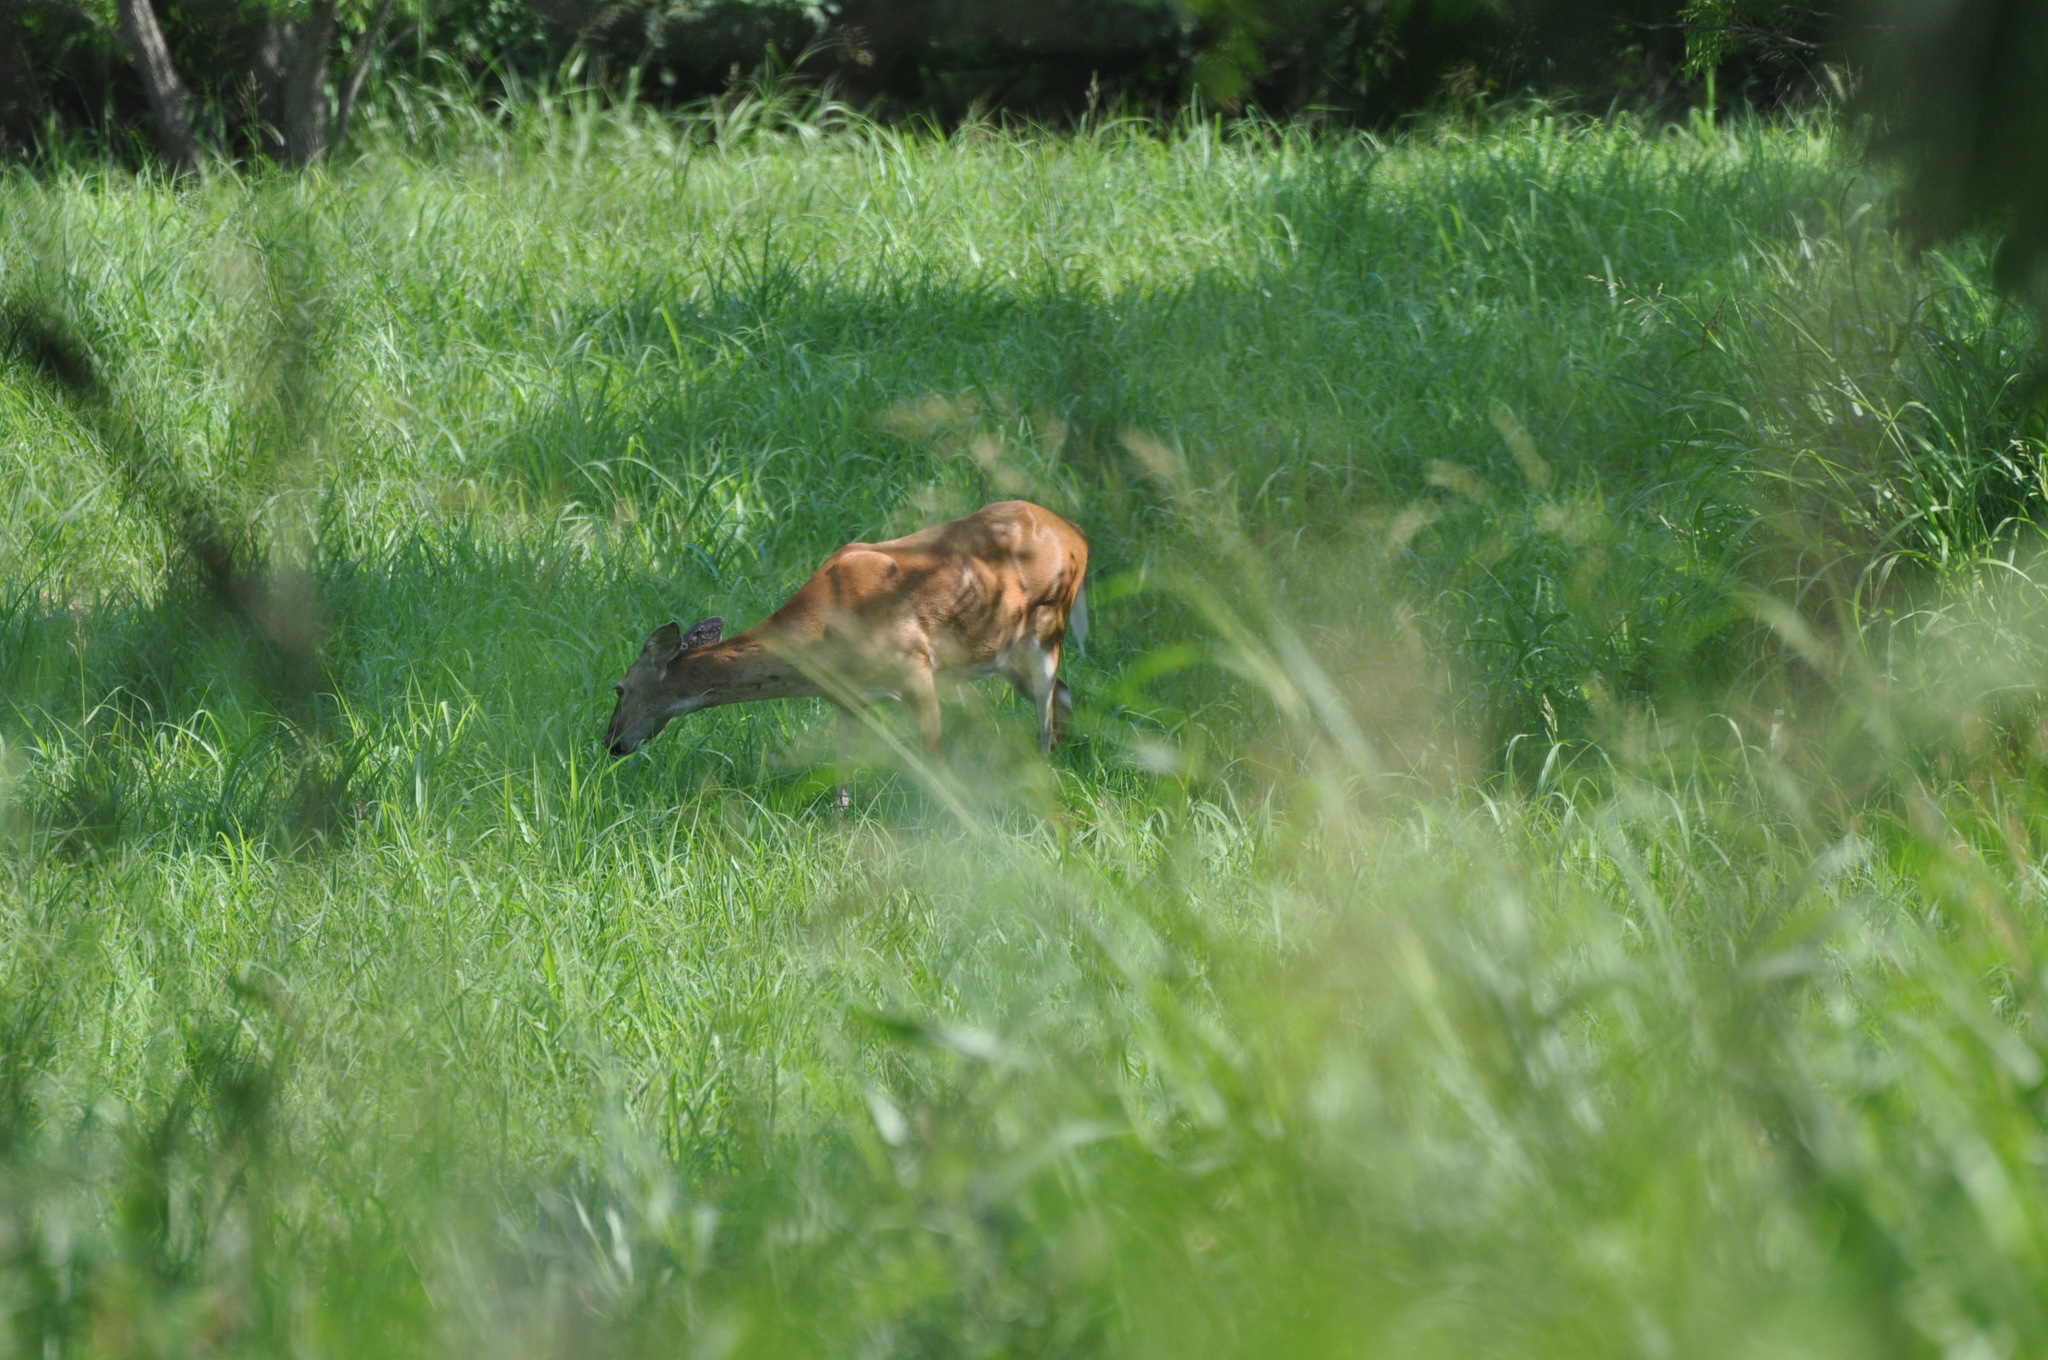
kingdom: Animalia
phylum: Chordata
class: Mammalia
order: Artiodactyla
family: Cervidae
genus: Odocoileus
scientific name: Odocoileus virginianus
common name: White-tailed deer
